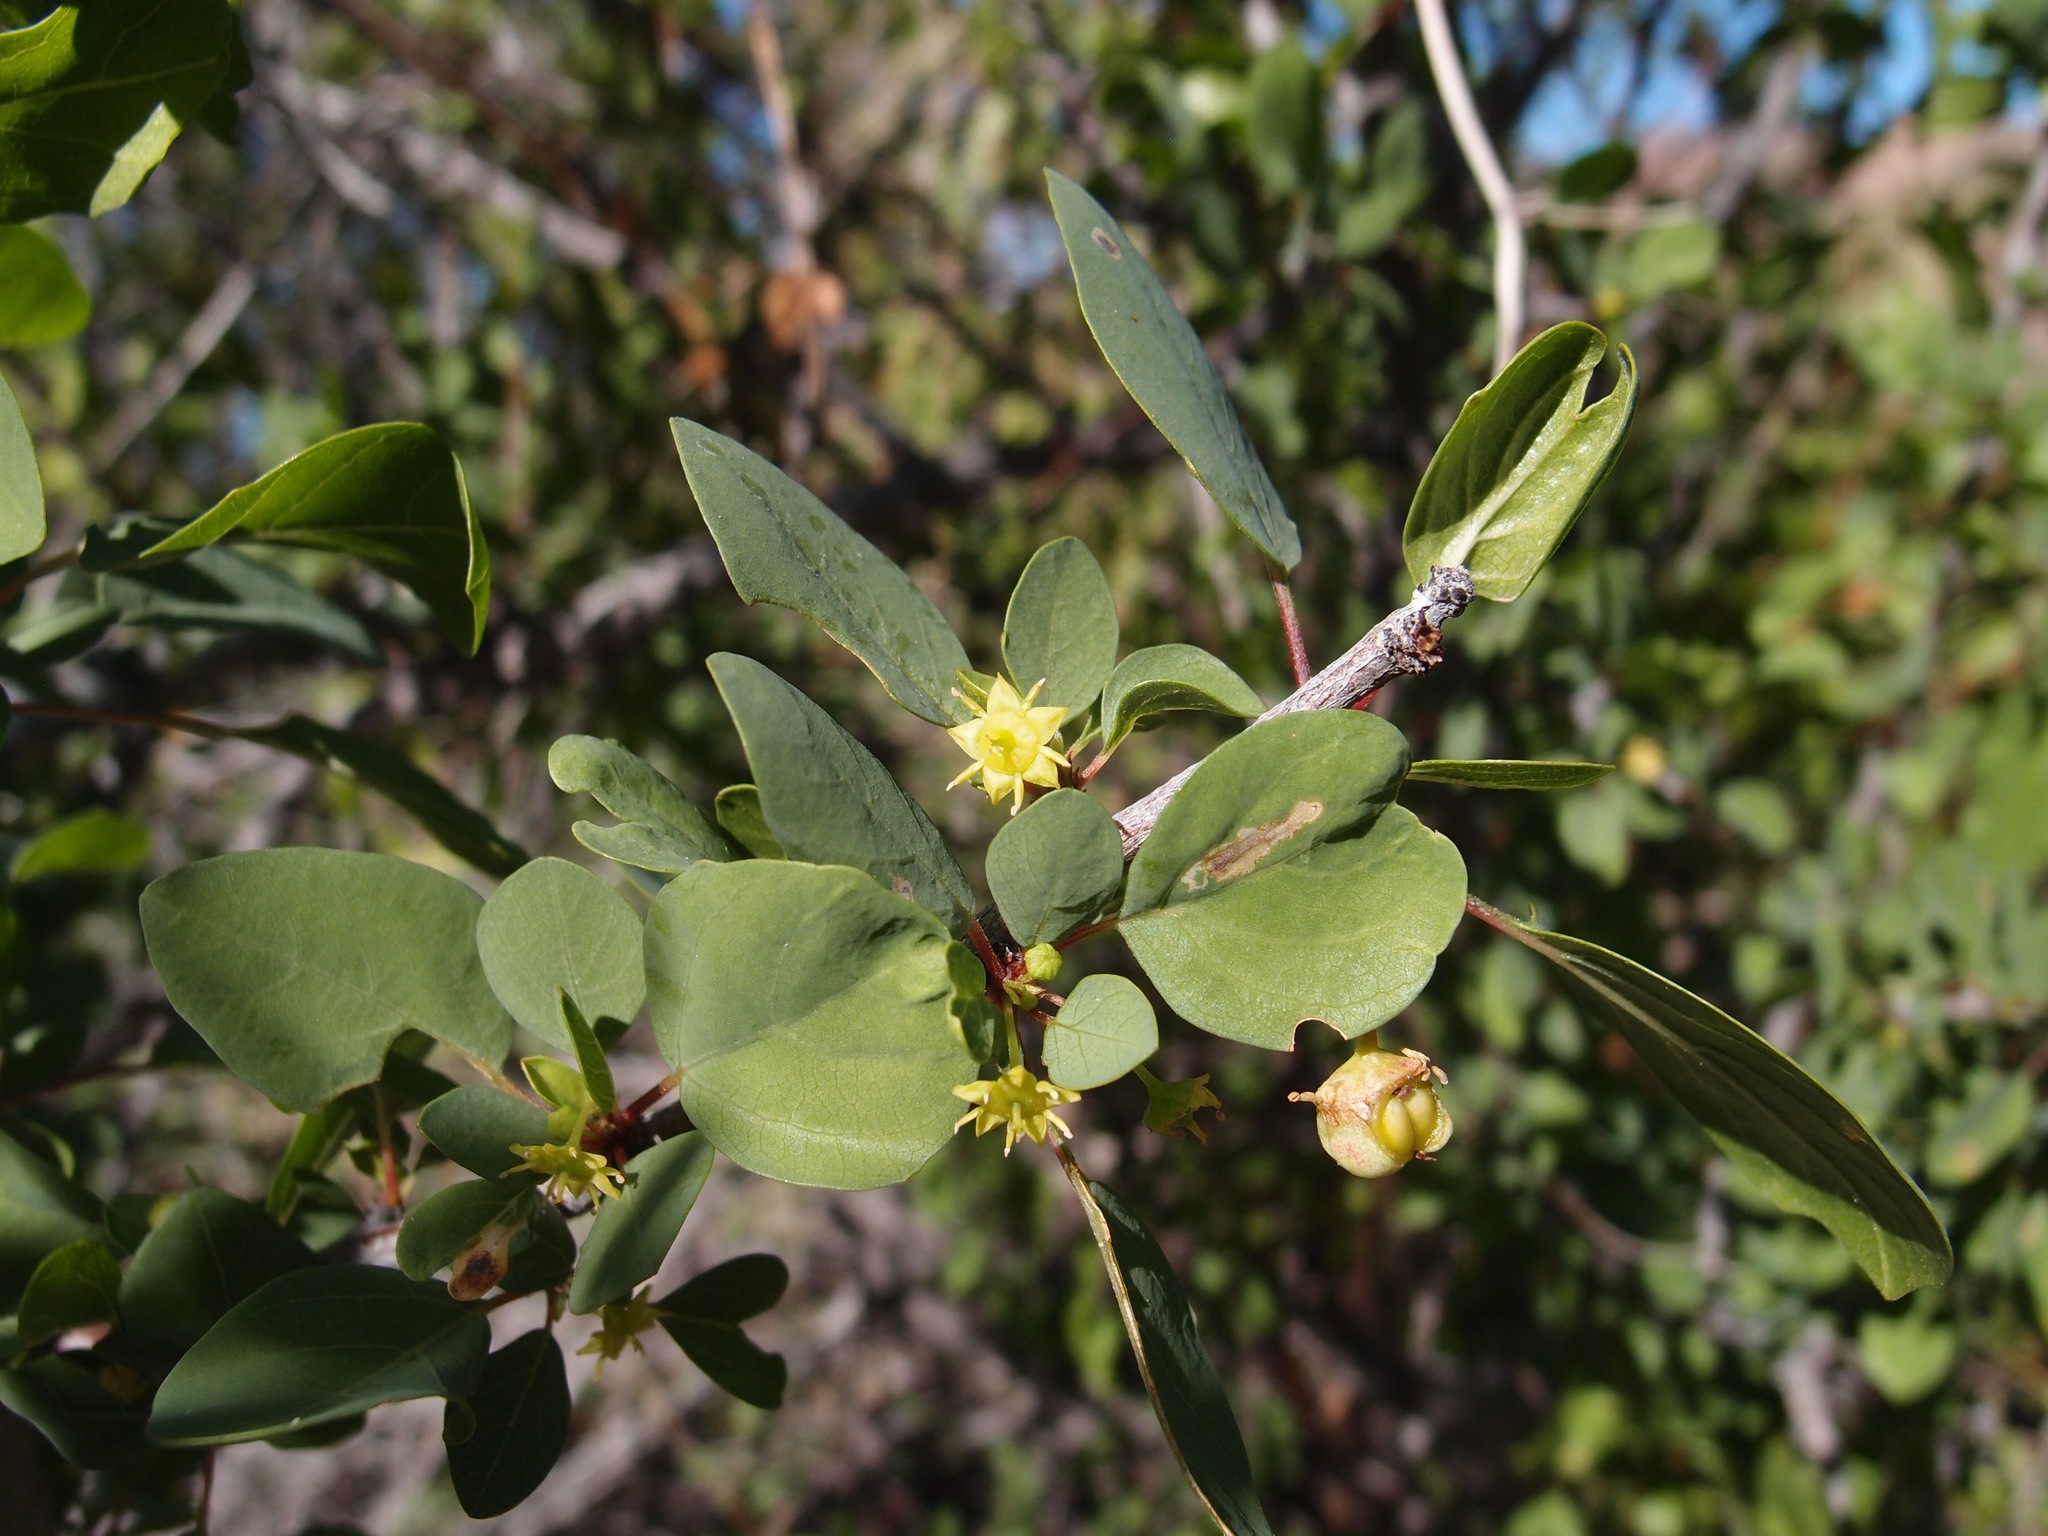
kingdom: Plantae
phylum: Tracheophyta
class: Magnoliopsida
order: Rosales
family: Rhamnaceae
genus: Colubrina
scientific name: Colubrina viridis
